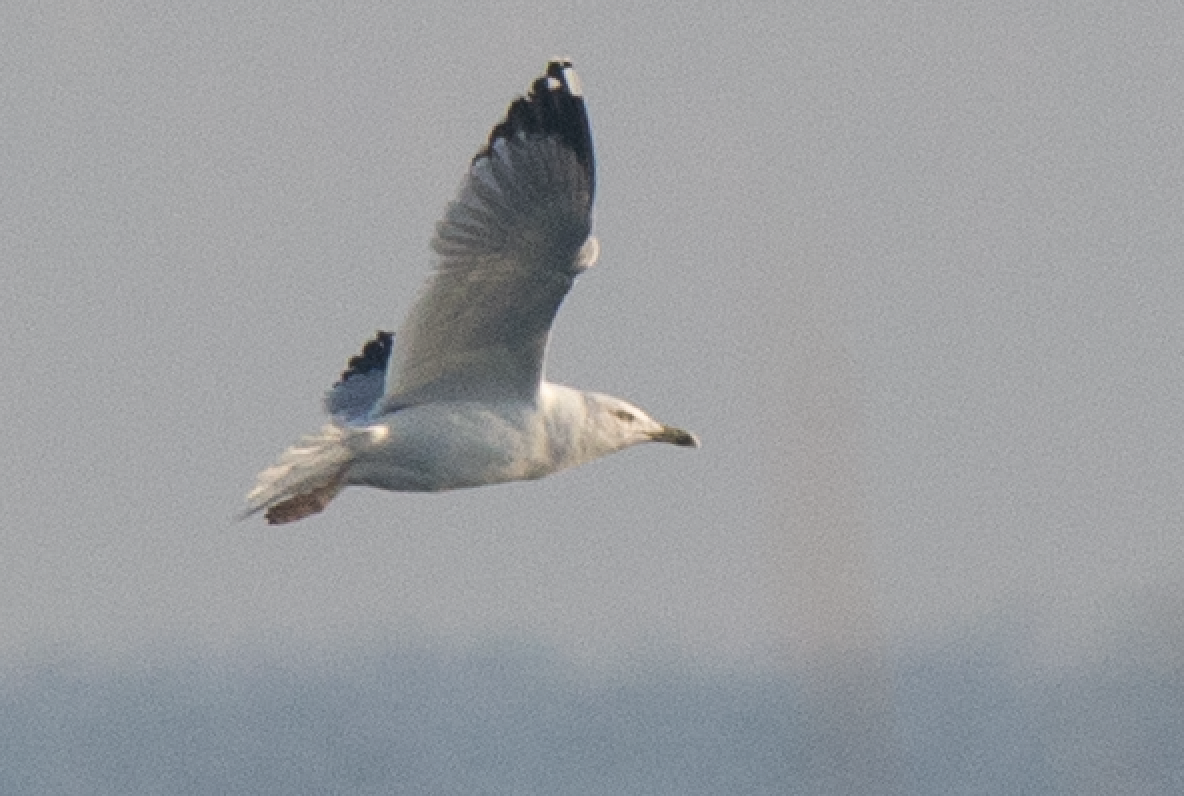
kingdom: Animalia
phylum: Chordata
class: Aves
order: Charadriiformes
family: Laridae
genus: Larus
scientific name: Larus michahellis
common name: Yellow-legged gull
